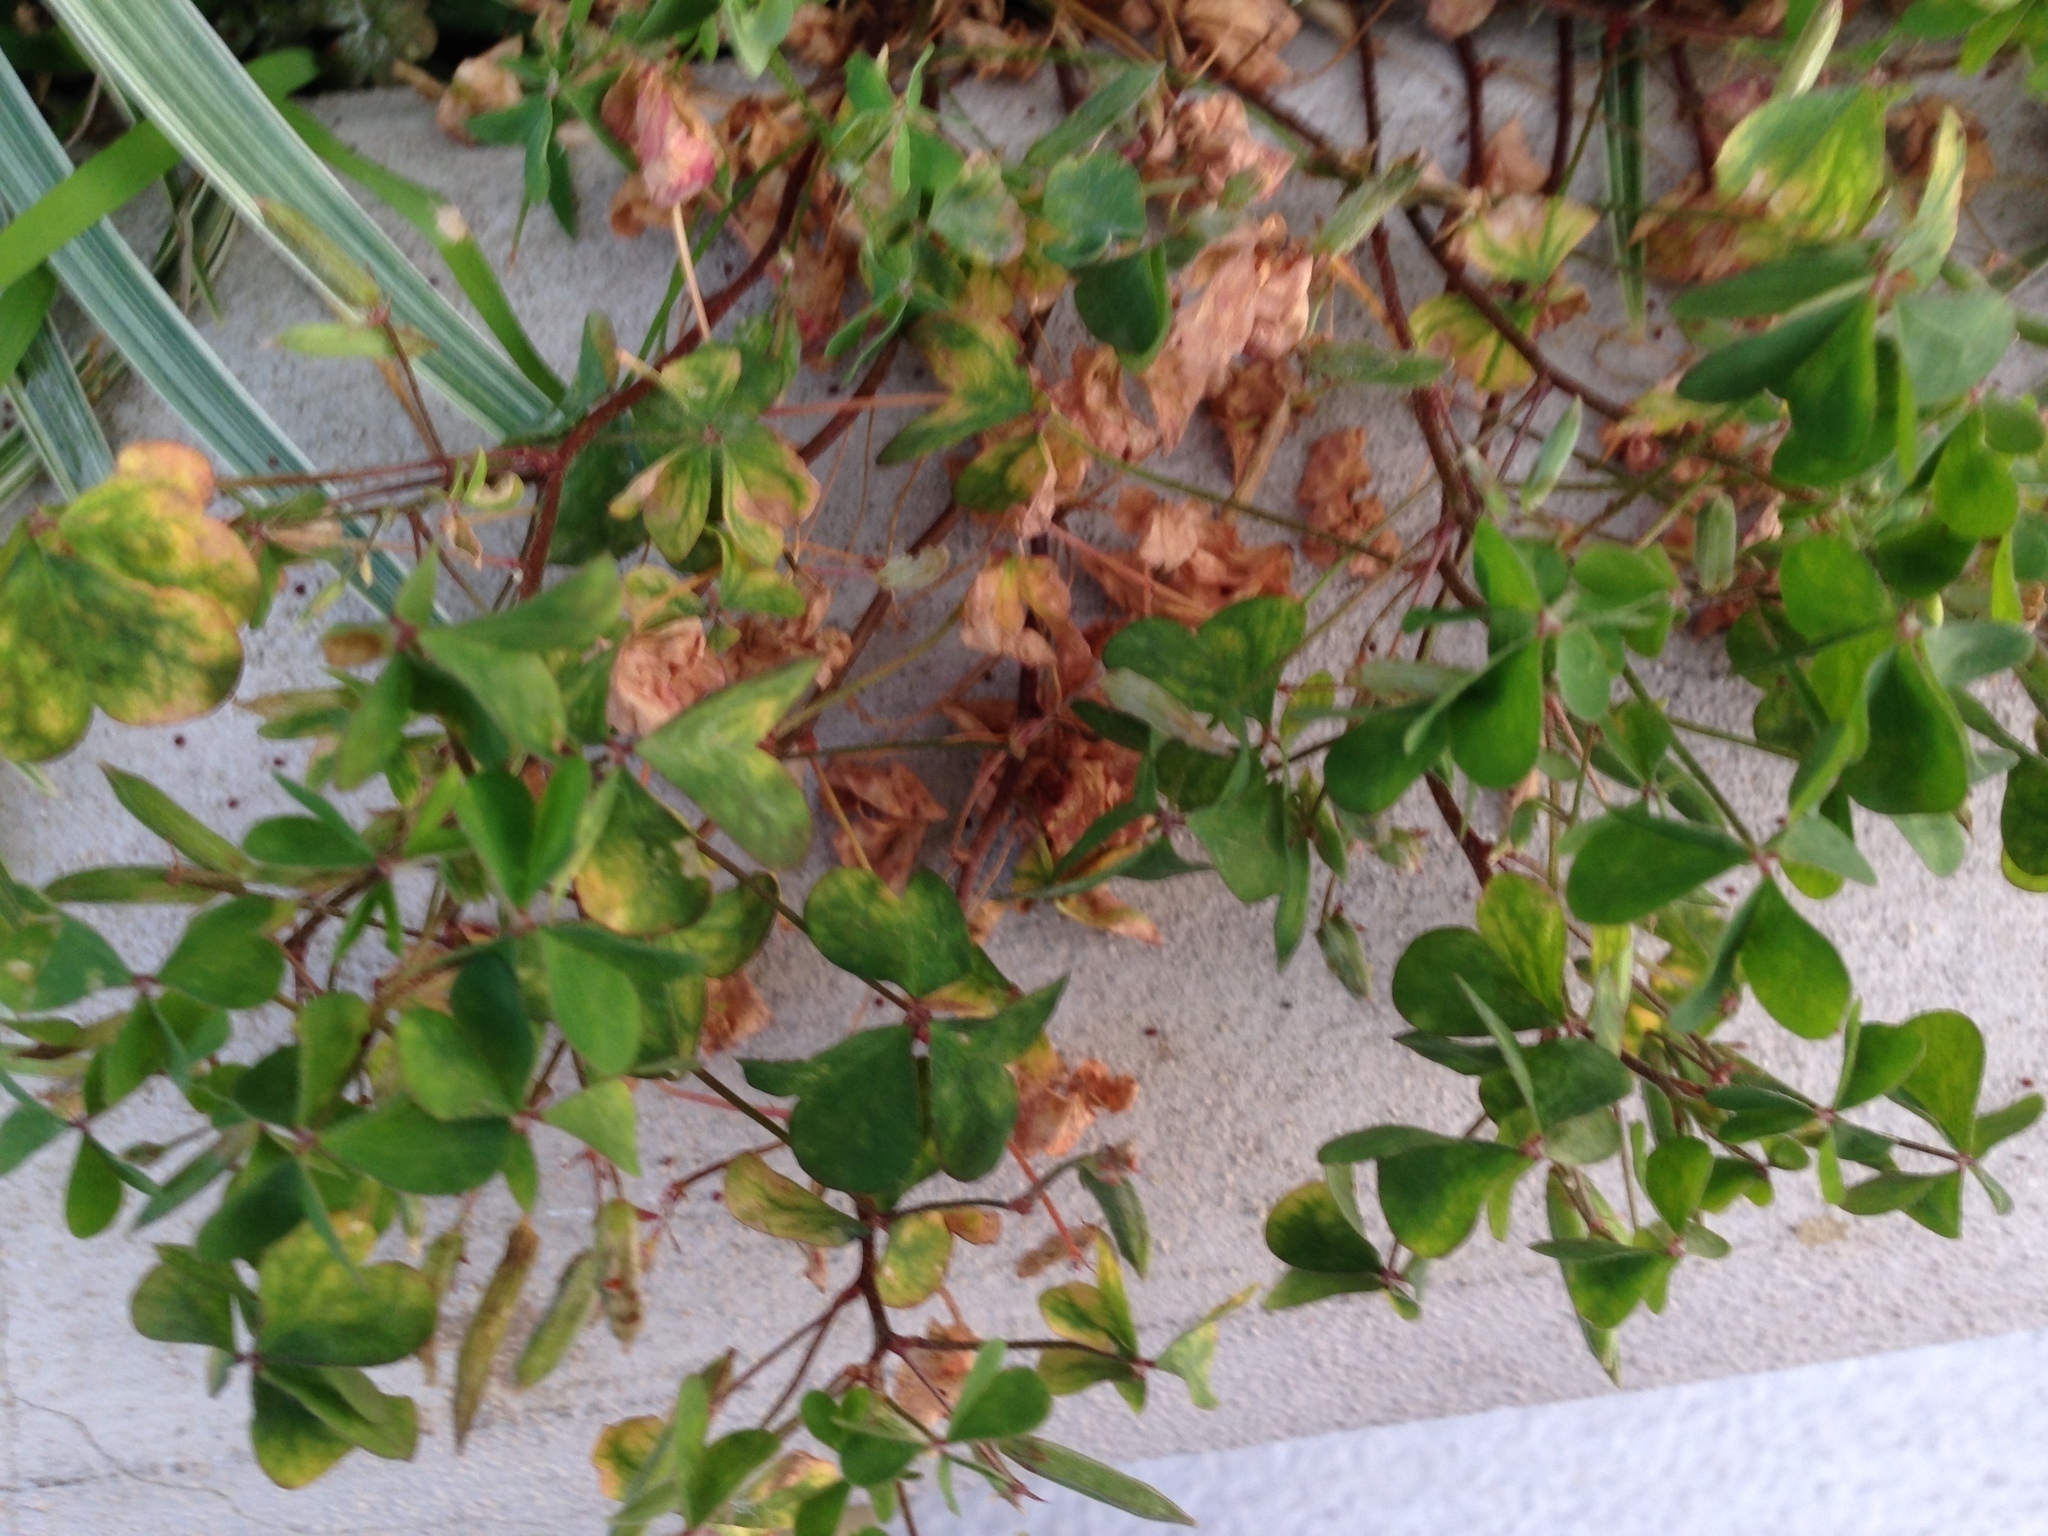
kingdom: Plantae
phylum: Tracheophyta
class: Magnoliopsida
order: Oxalidales
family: Oxalidaceae
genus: Oxalis
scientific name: Oxalis corniculata
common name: Procumbent yellow-sorrel
